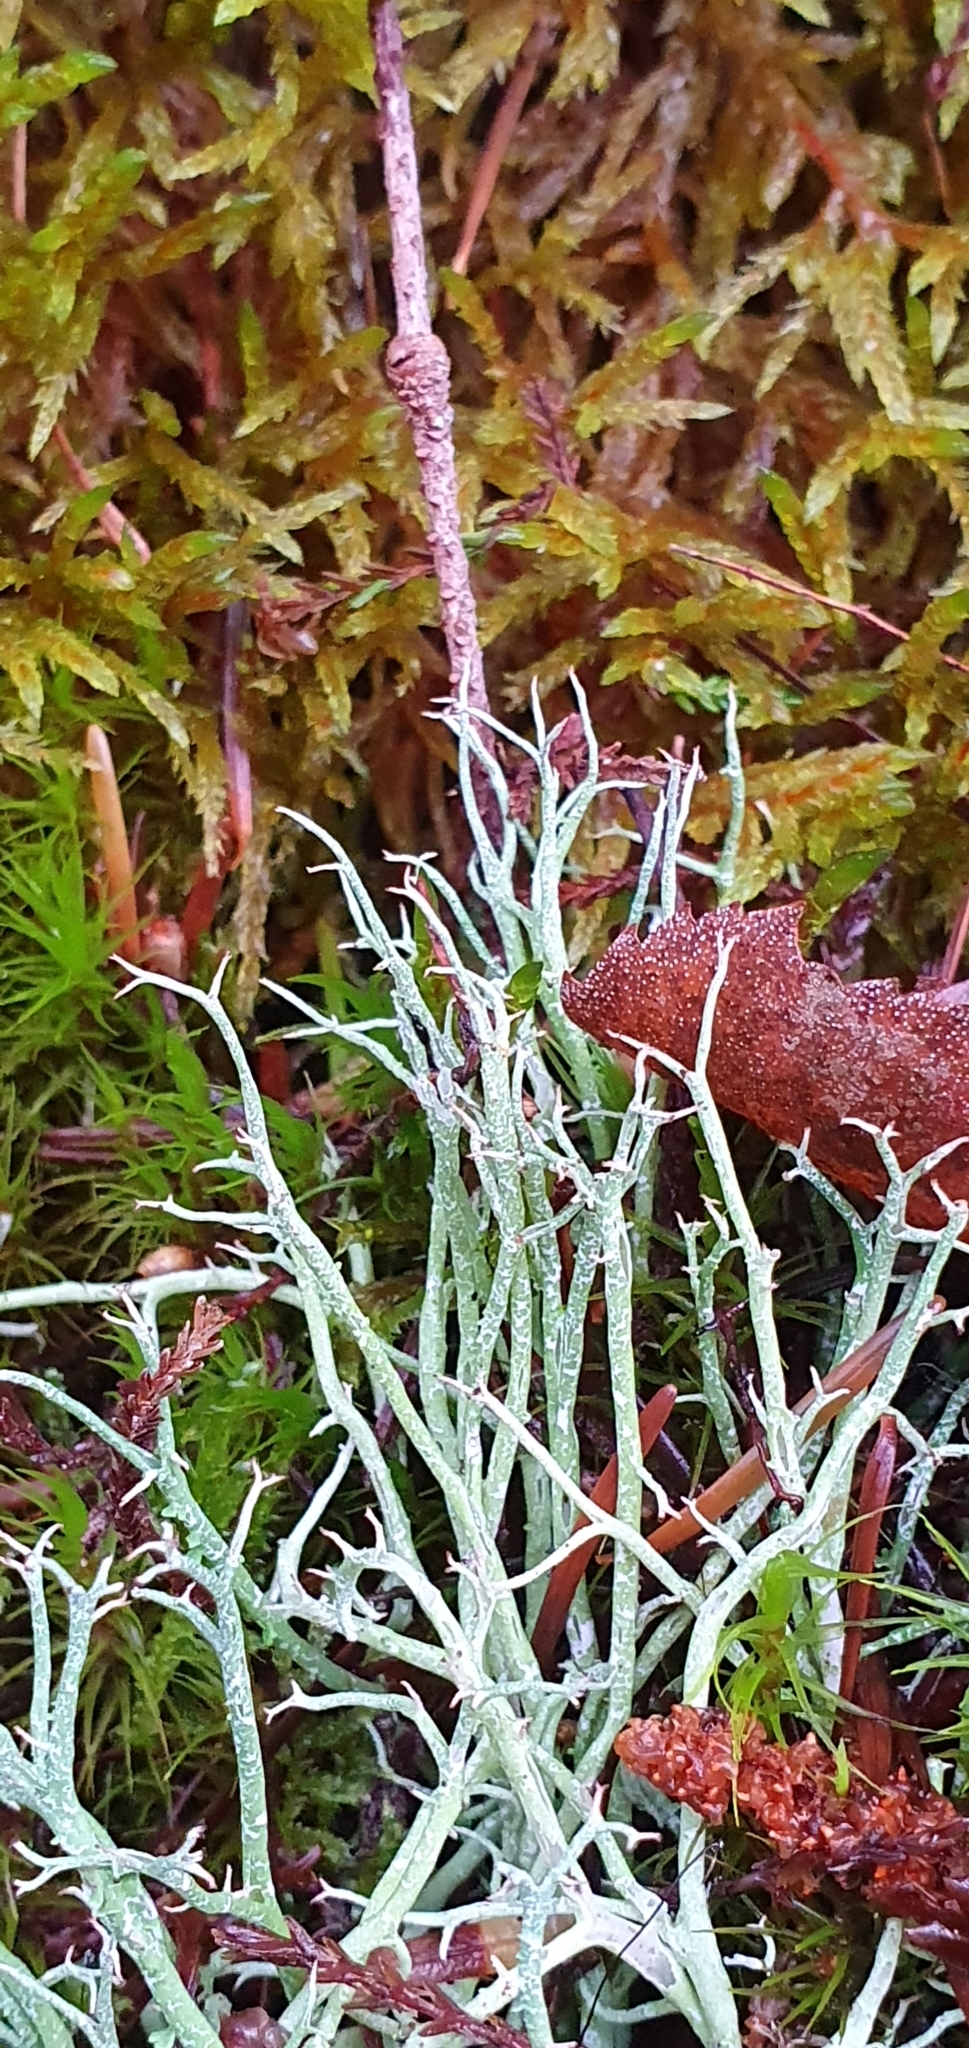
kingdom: Fungi
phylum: Ascomycota
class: Lecanoromycetes
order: Lecanorales
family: Cladoniaceae
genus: Cladonia
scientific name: Cladonia furcata
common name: Many-forked cladonia
